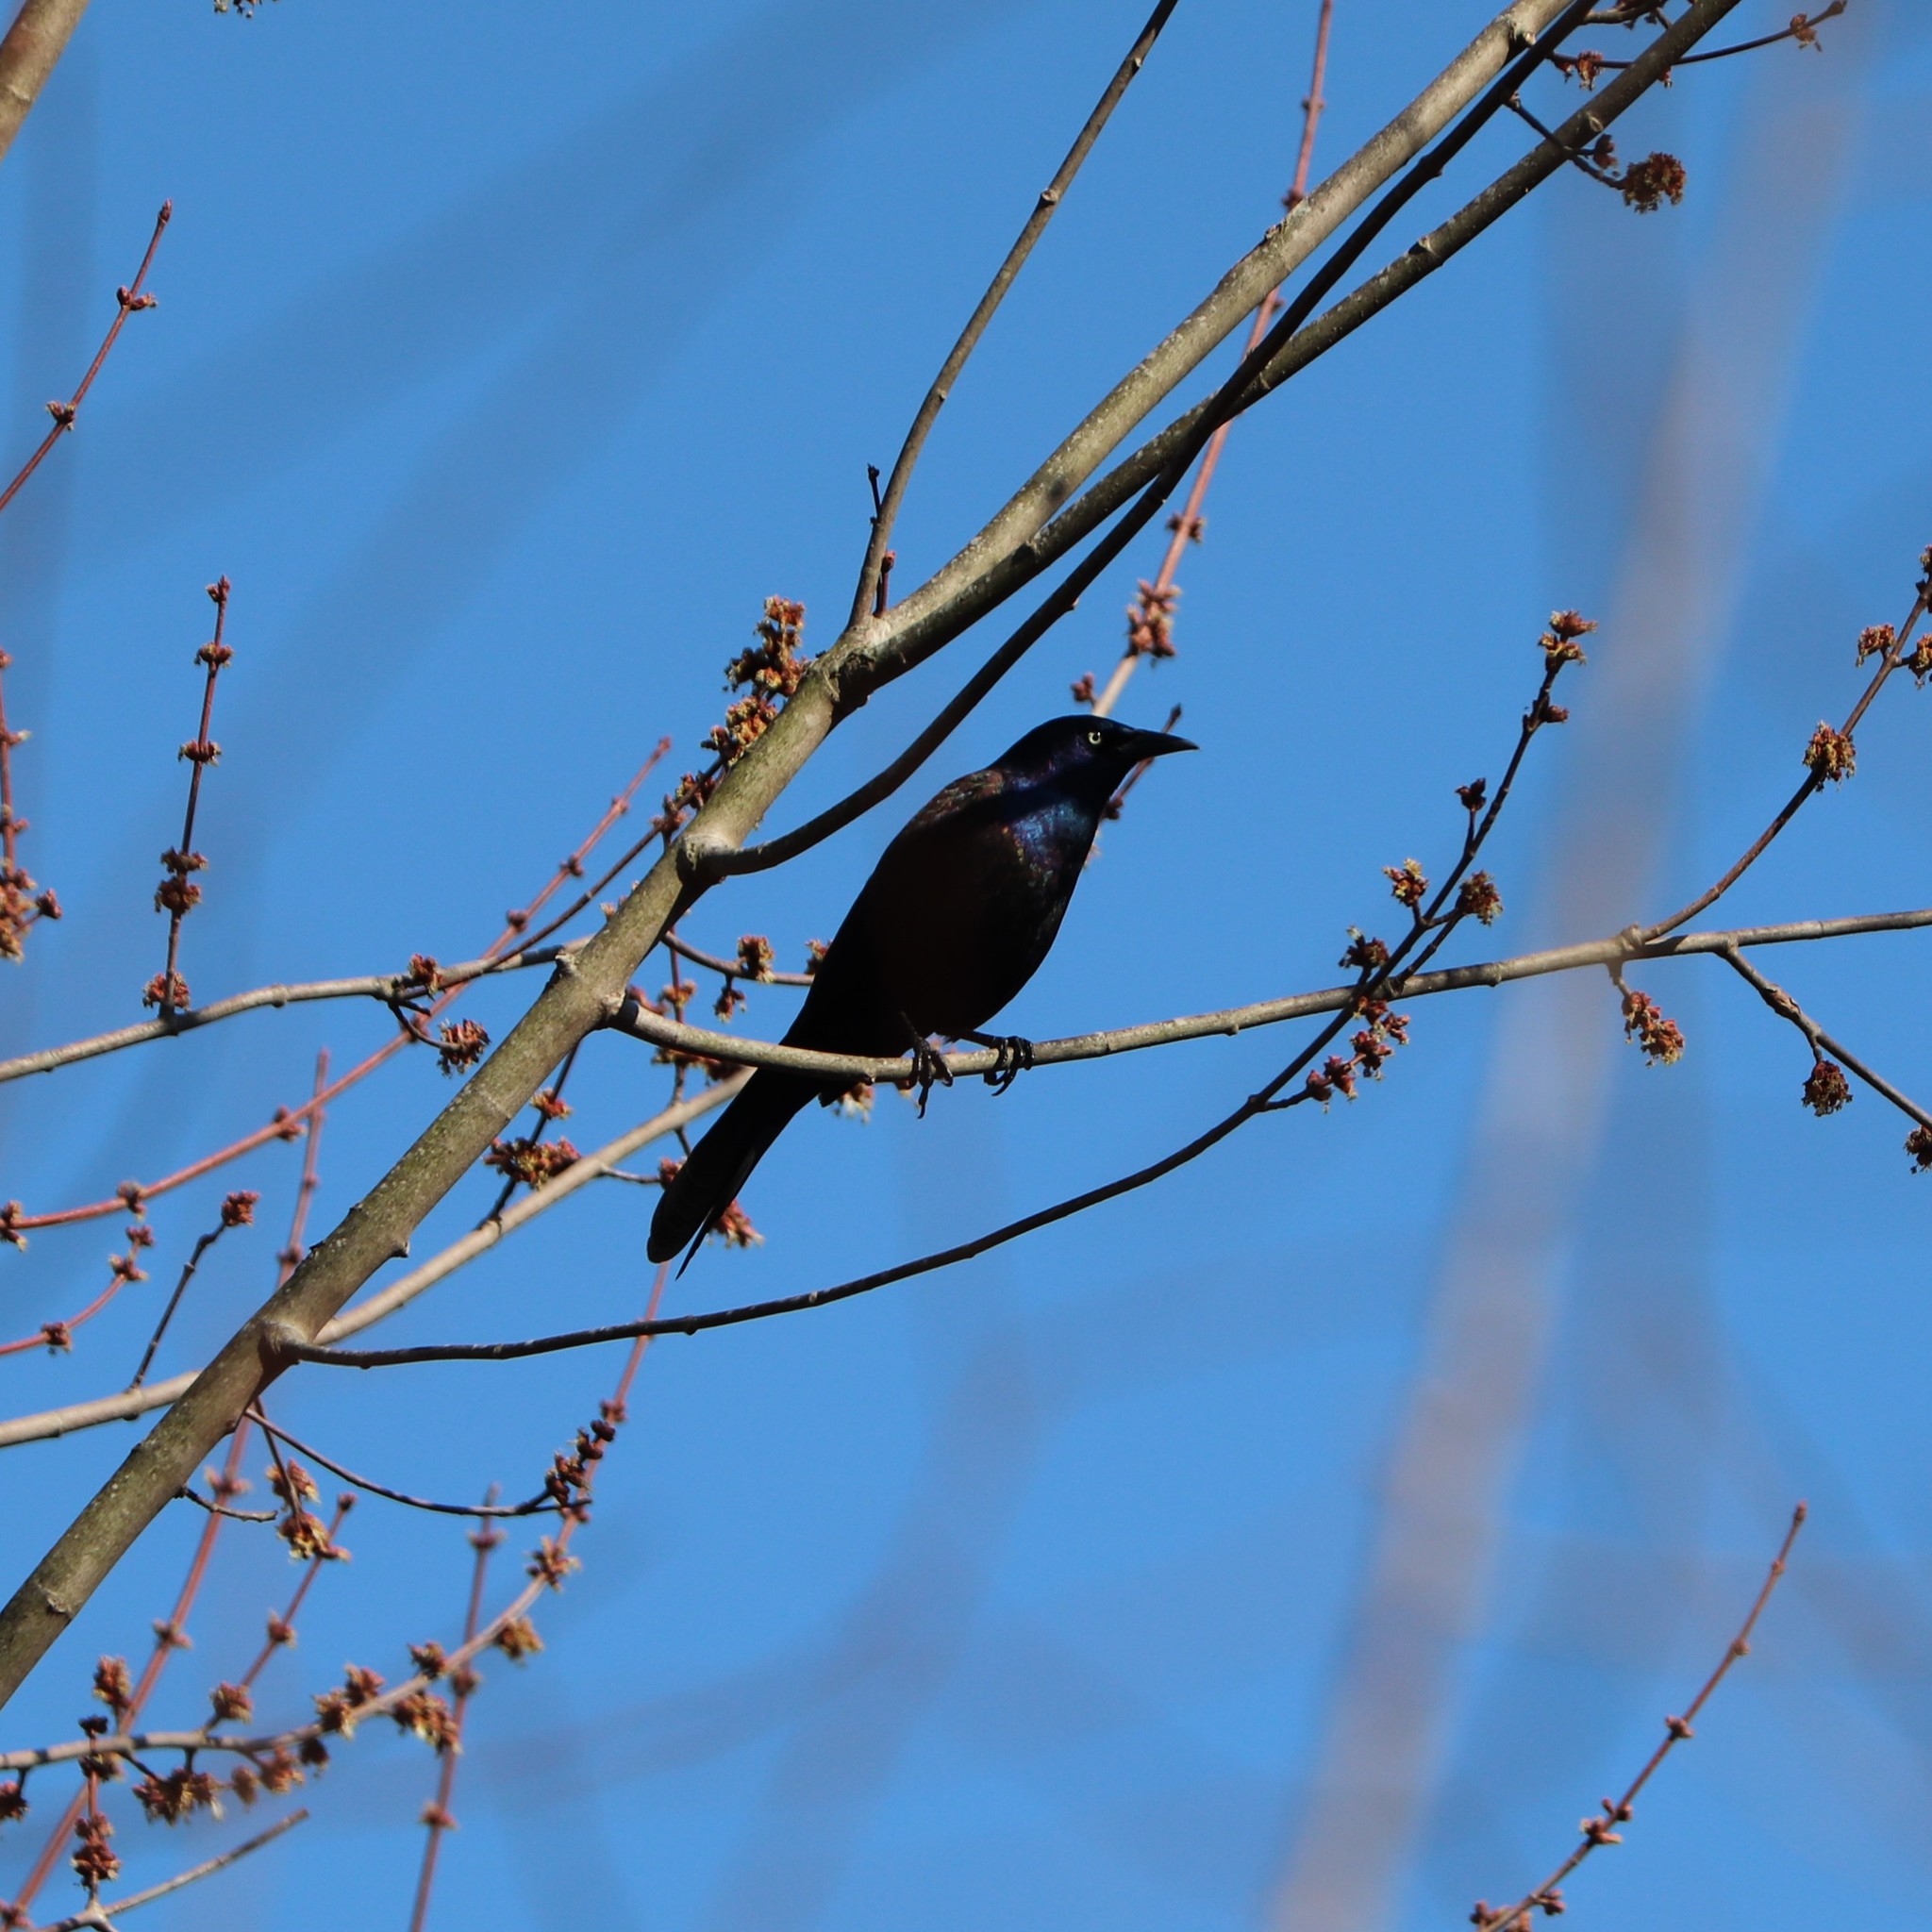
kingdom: Animalia
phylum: Chordata
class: Aves
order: Passeriformes
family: Icteridae
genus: Quiscalus
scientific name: Quiscalus quiscula
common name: Common grackle
